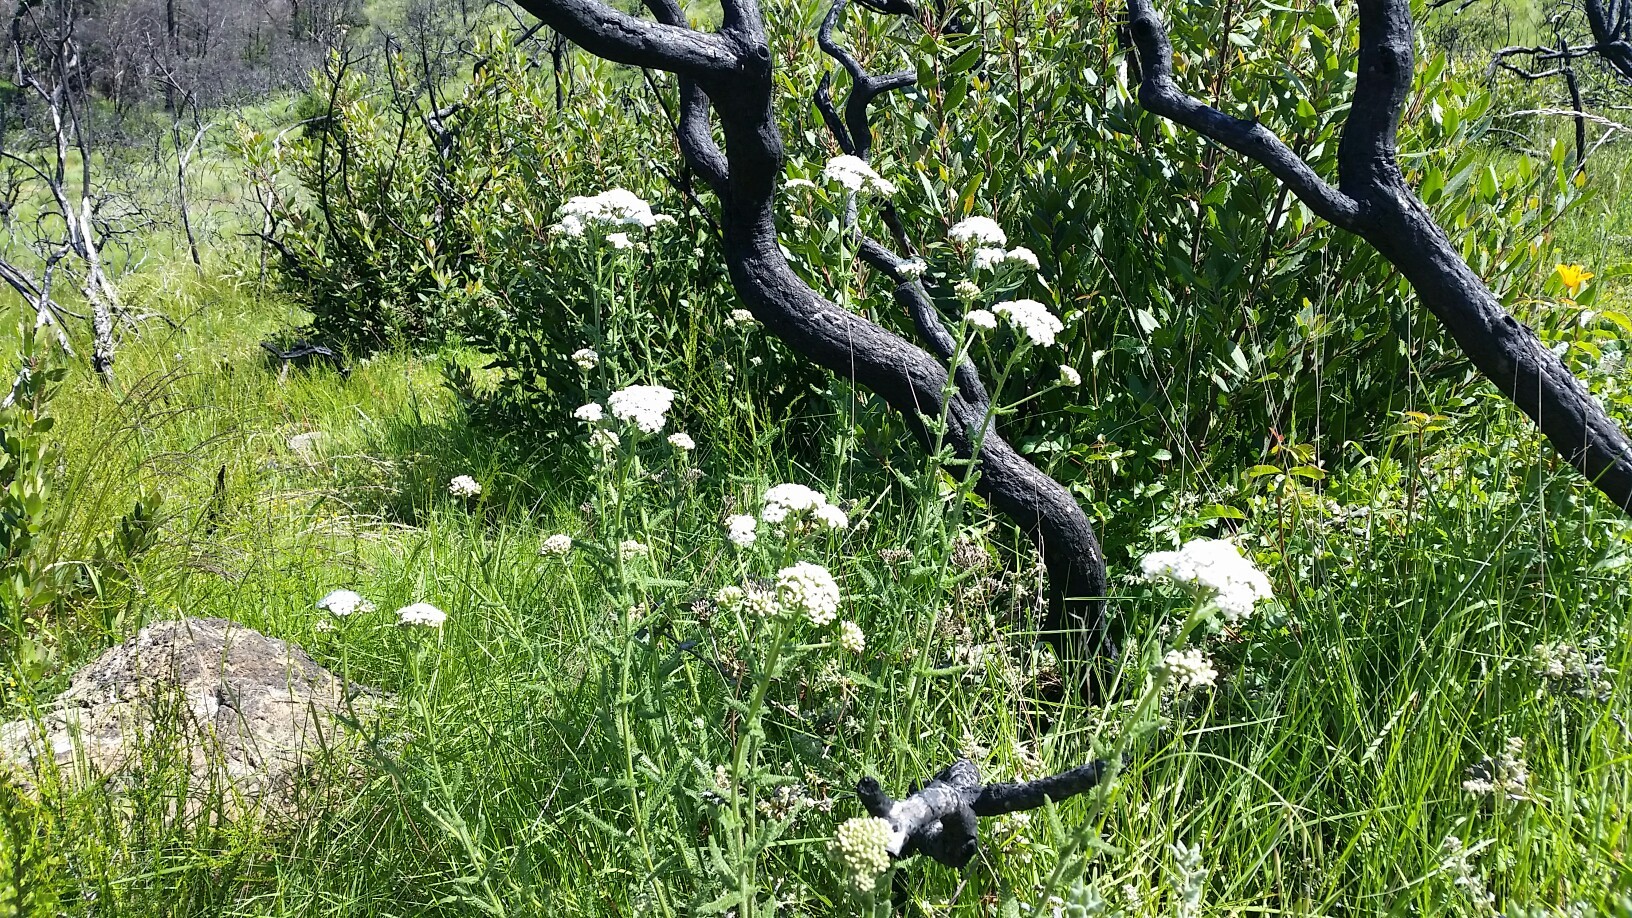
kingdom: Plantae
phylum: Tracheophyta
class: Magnoliopsida
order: Asterales
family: Asteraceae
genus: Achillea
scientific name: Achillea millefolium
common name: Yarrow
